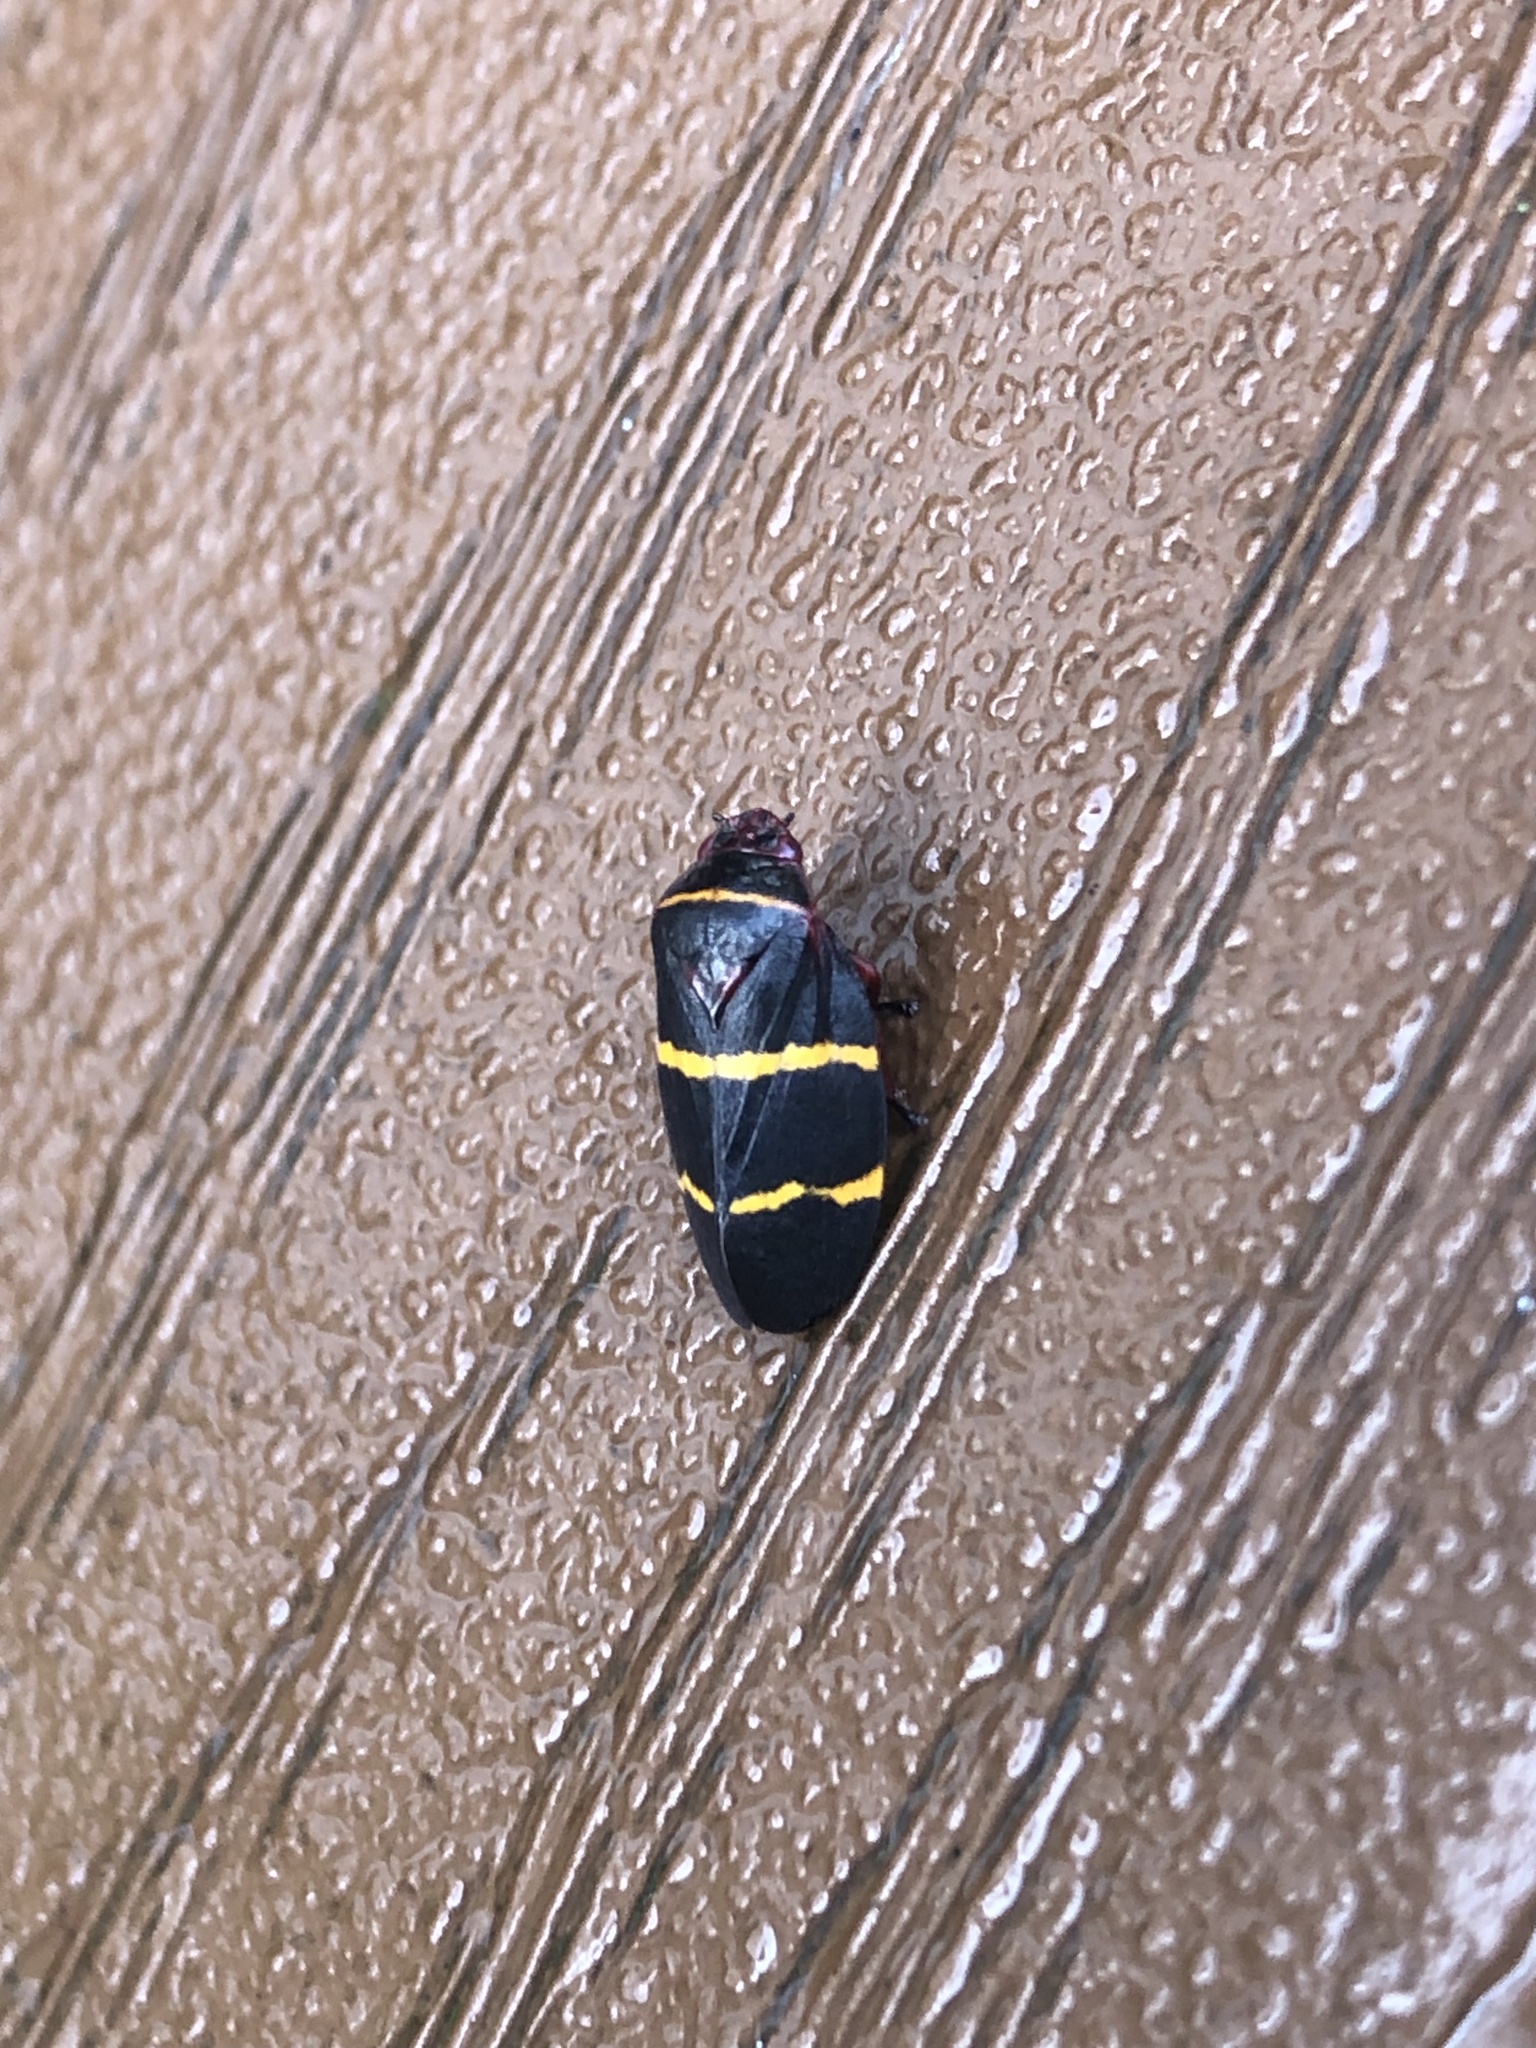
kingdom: Animalia
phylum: Arthropoda
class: Insecta
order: Hemiptera
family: Cercopidae
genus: Prosapia
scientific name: Prosapia bicincta
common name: Twolined spittlebug
